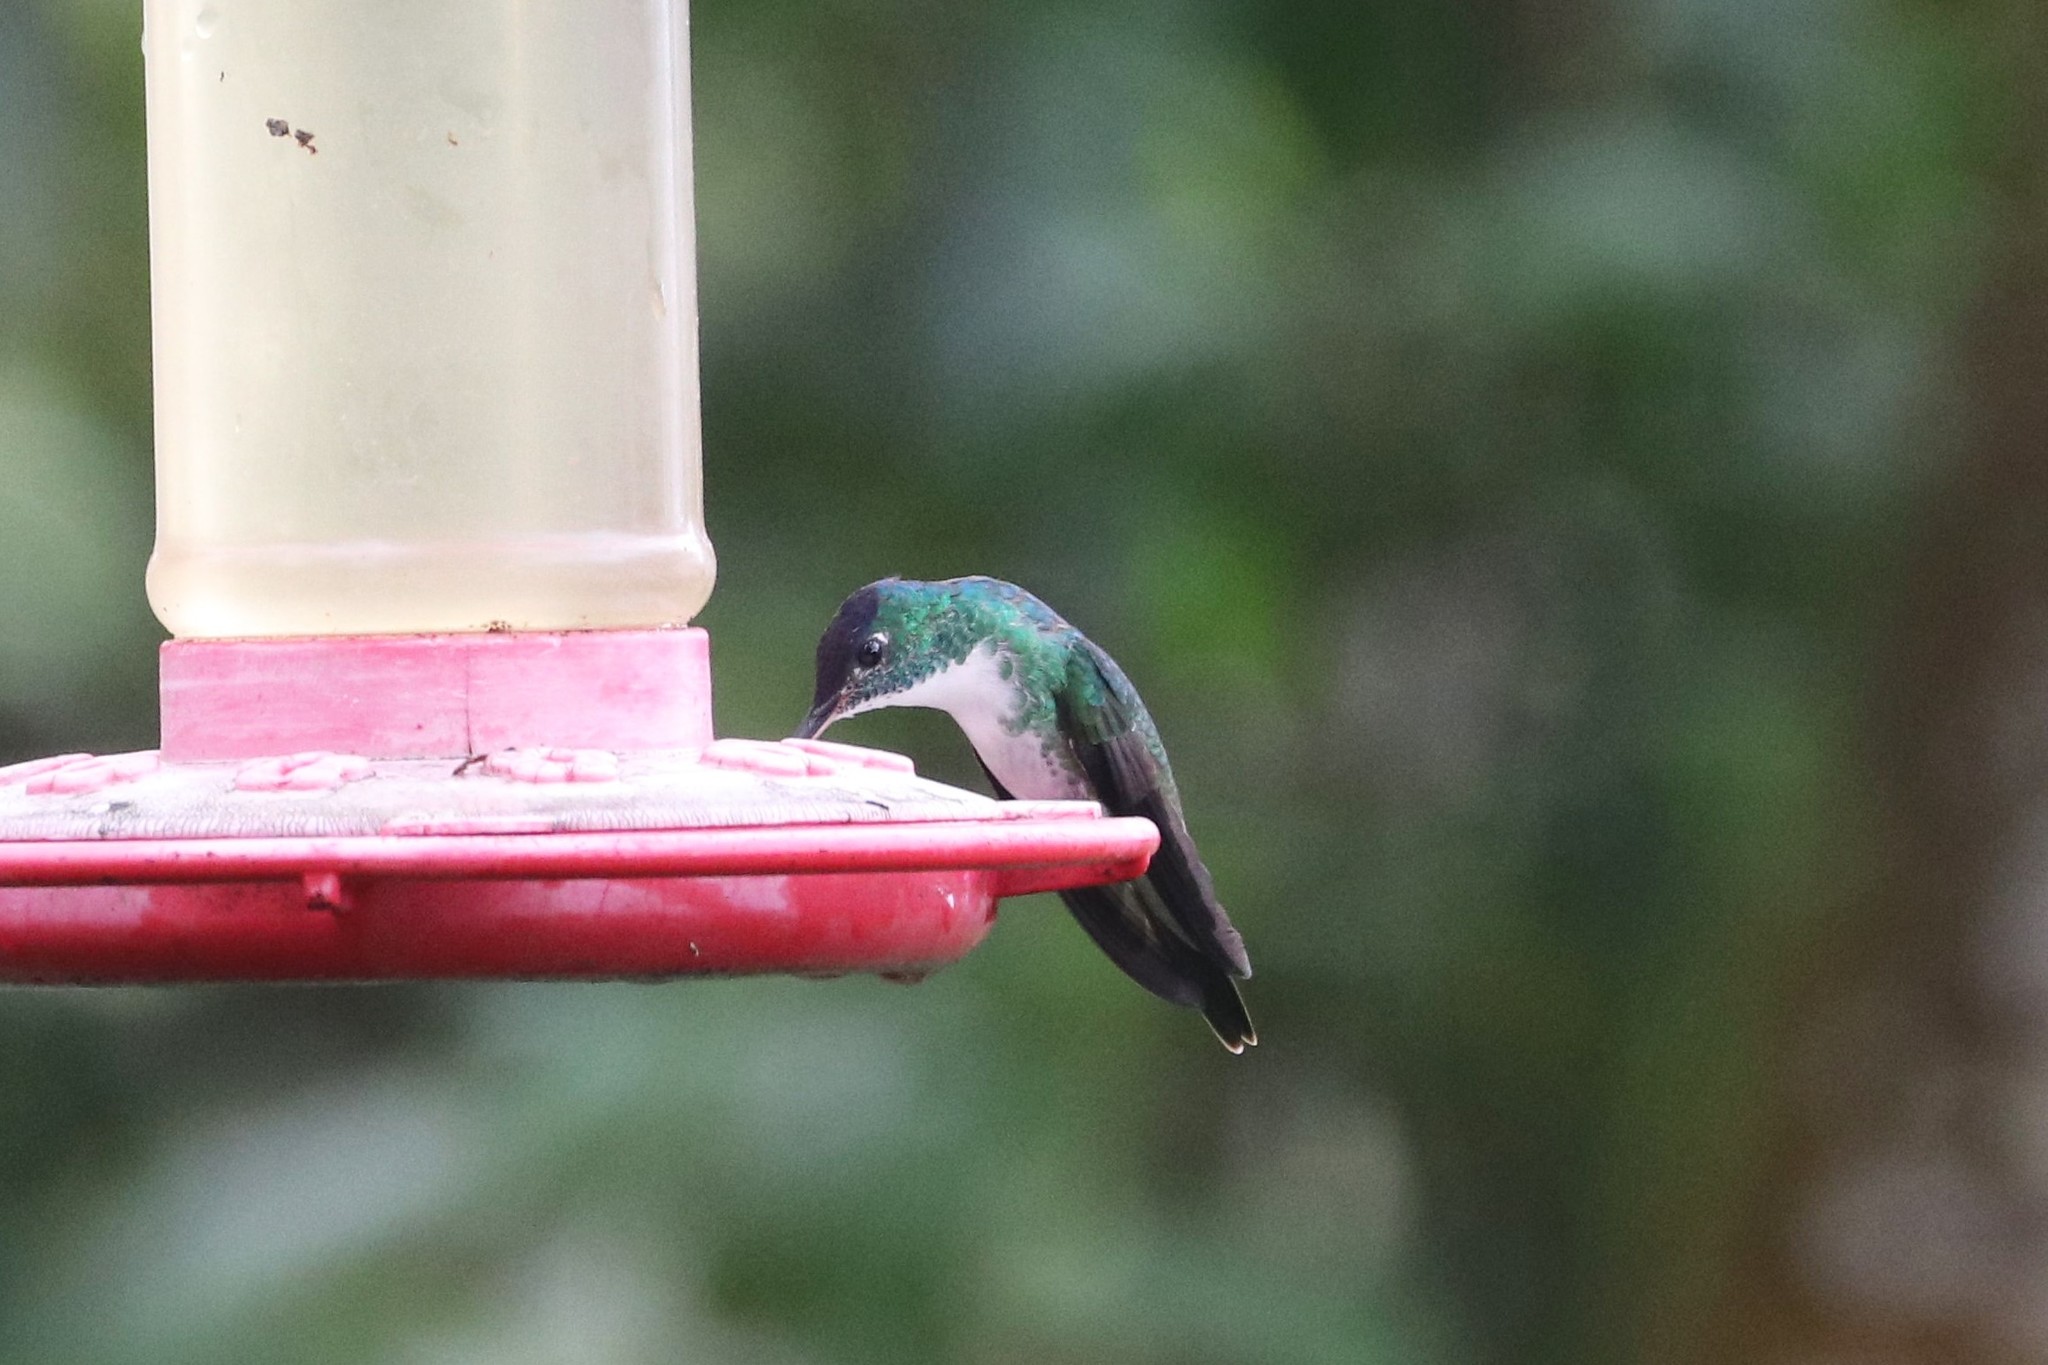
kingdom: Animalia
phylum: Chordata
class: Aves
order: Apodiformes
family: Trochilidae
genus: Uranomitra
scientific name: Uranomitra franciae
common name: Andean emerald
